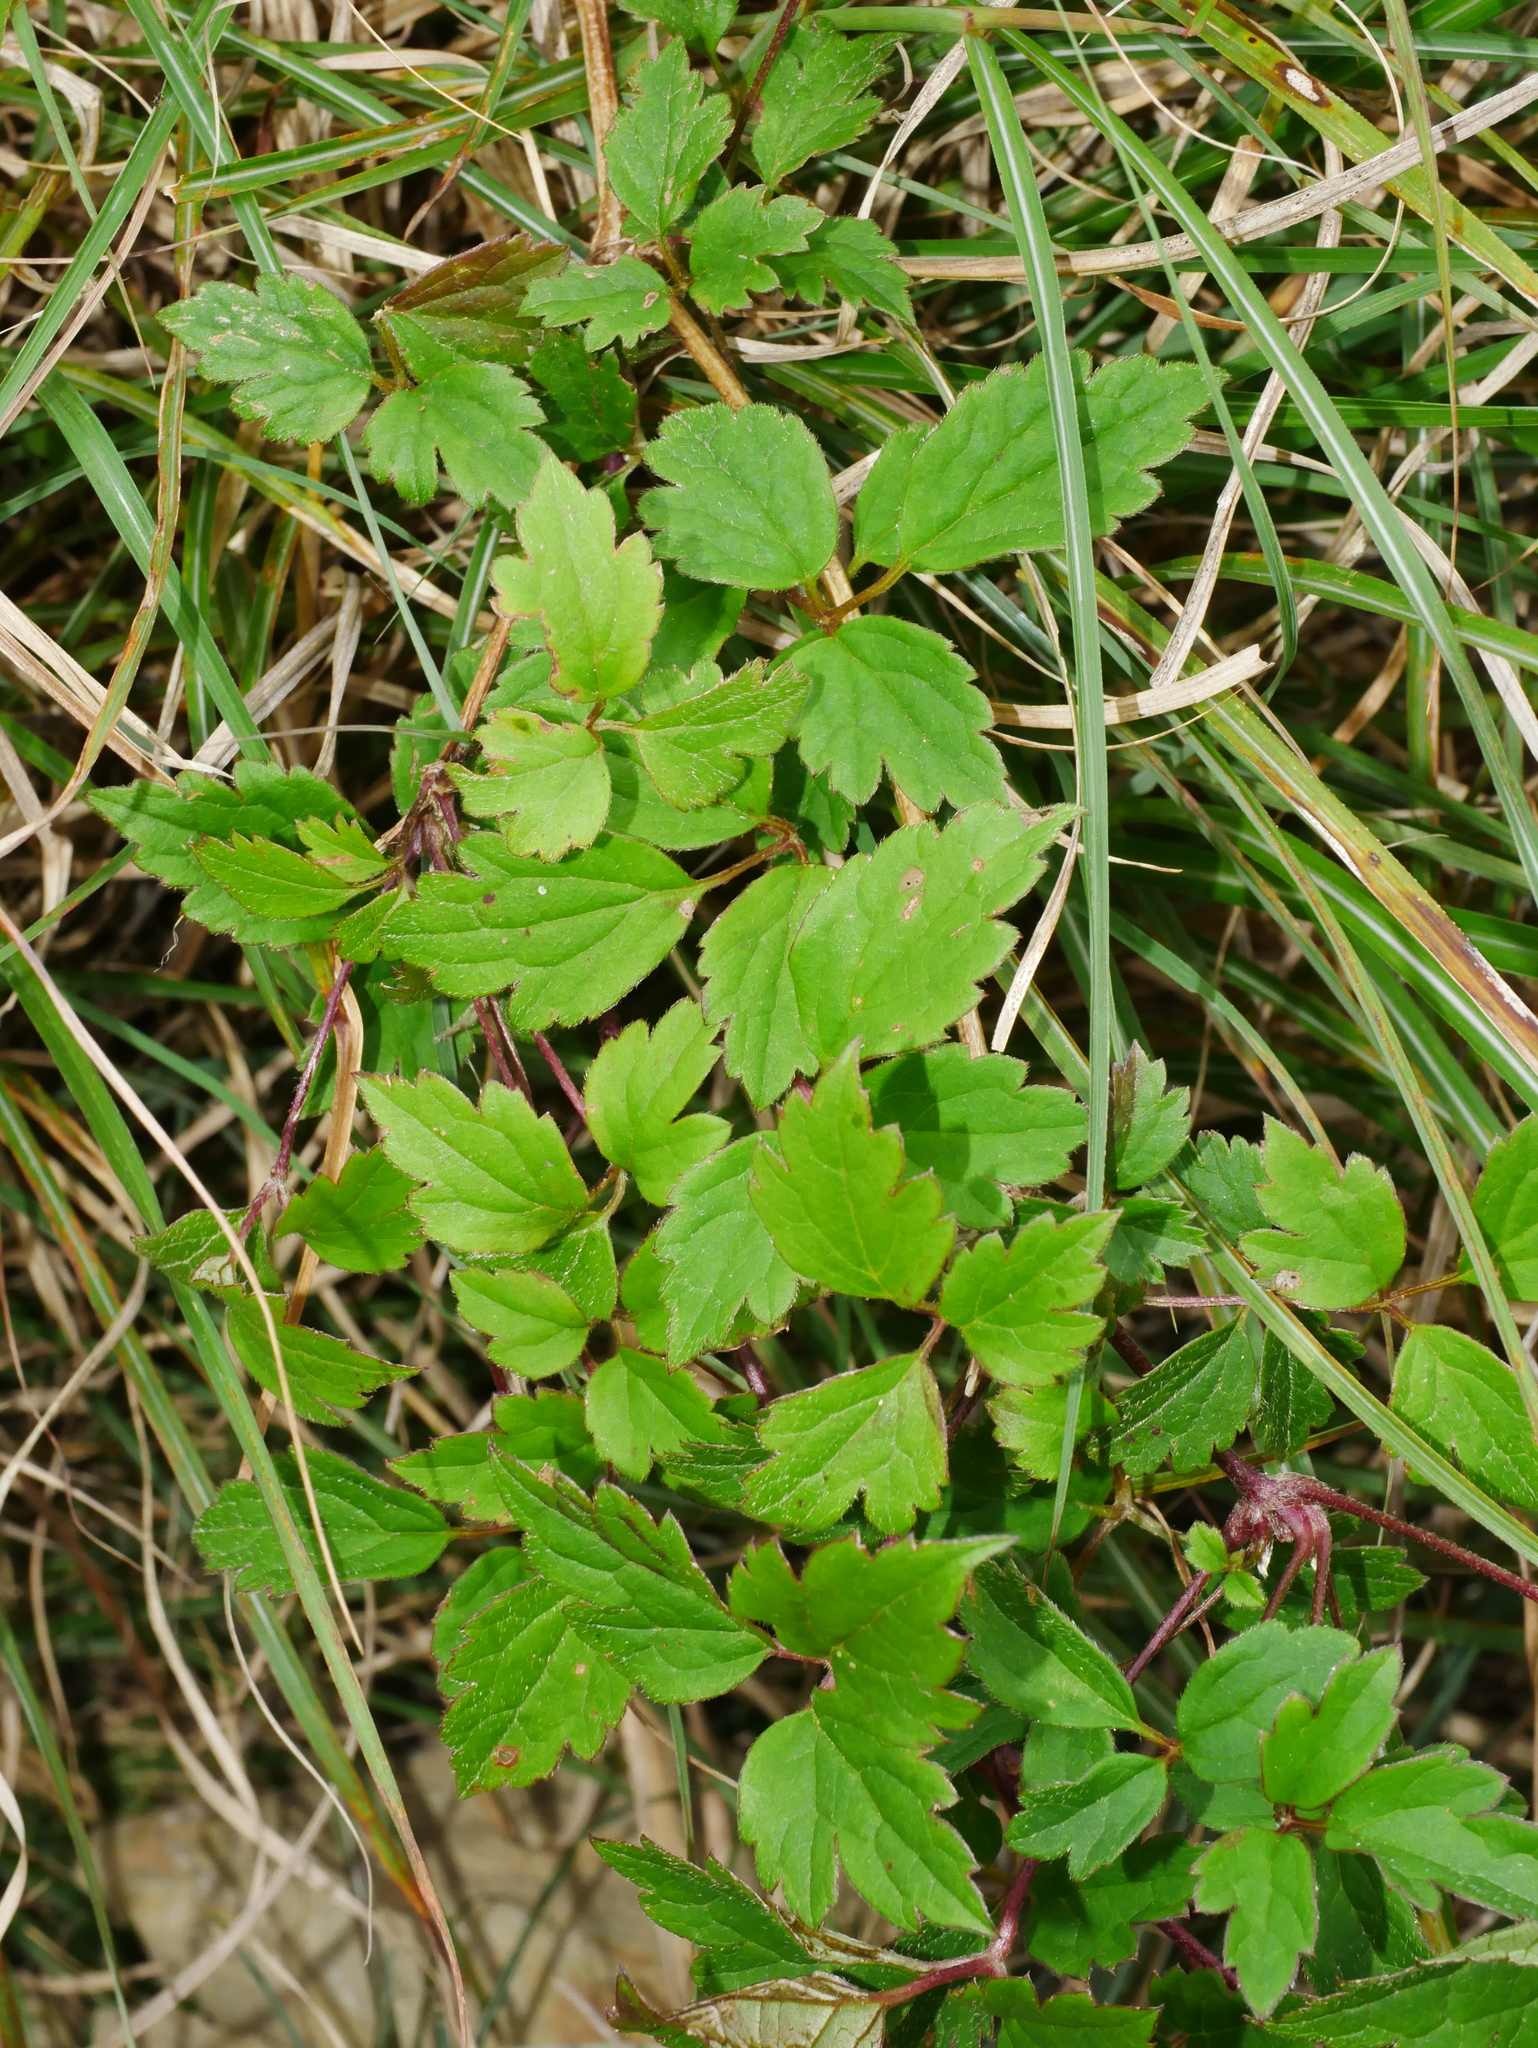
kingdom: Plantae
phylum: Tracheophyta
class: Magnoliopsida
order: Ranunculales
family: Ranunculaceae
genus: Clematis
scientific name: Clematis montana
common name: Himalayan clematis
